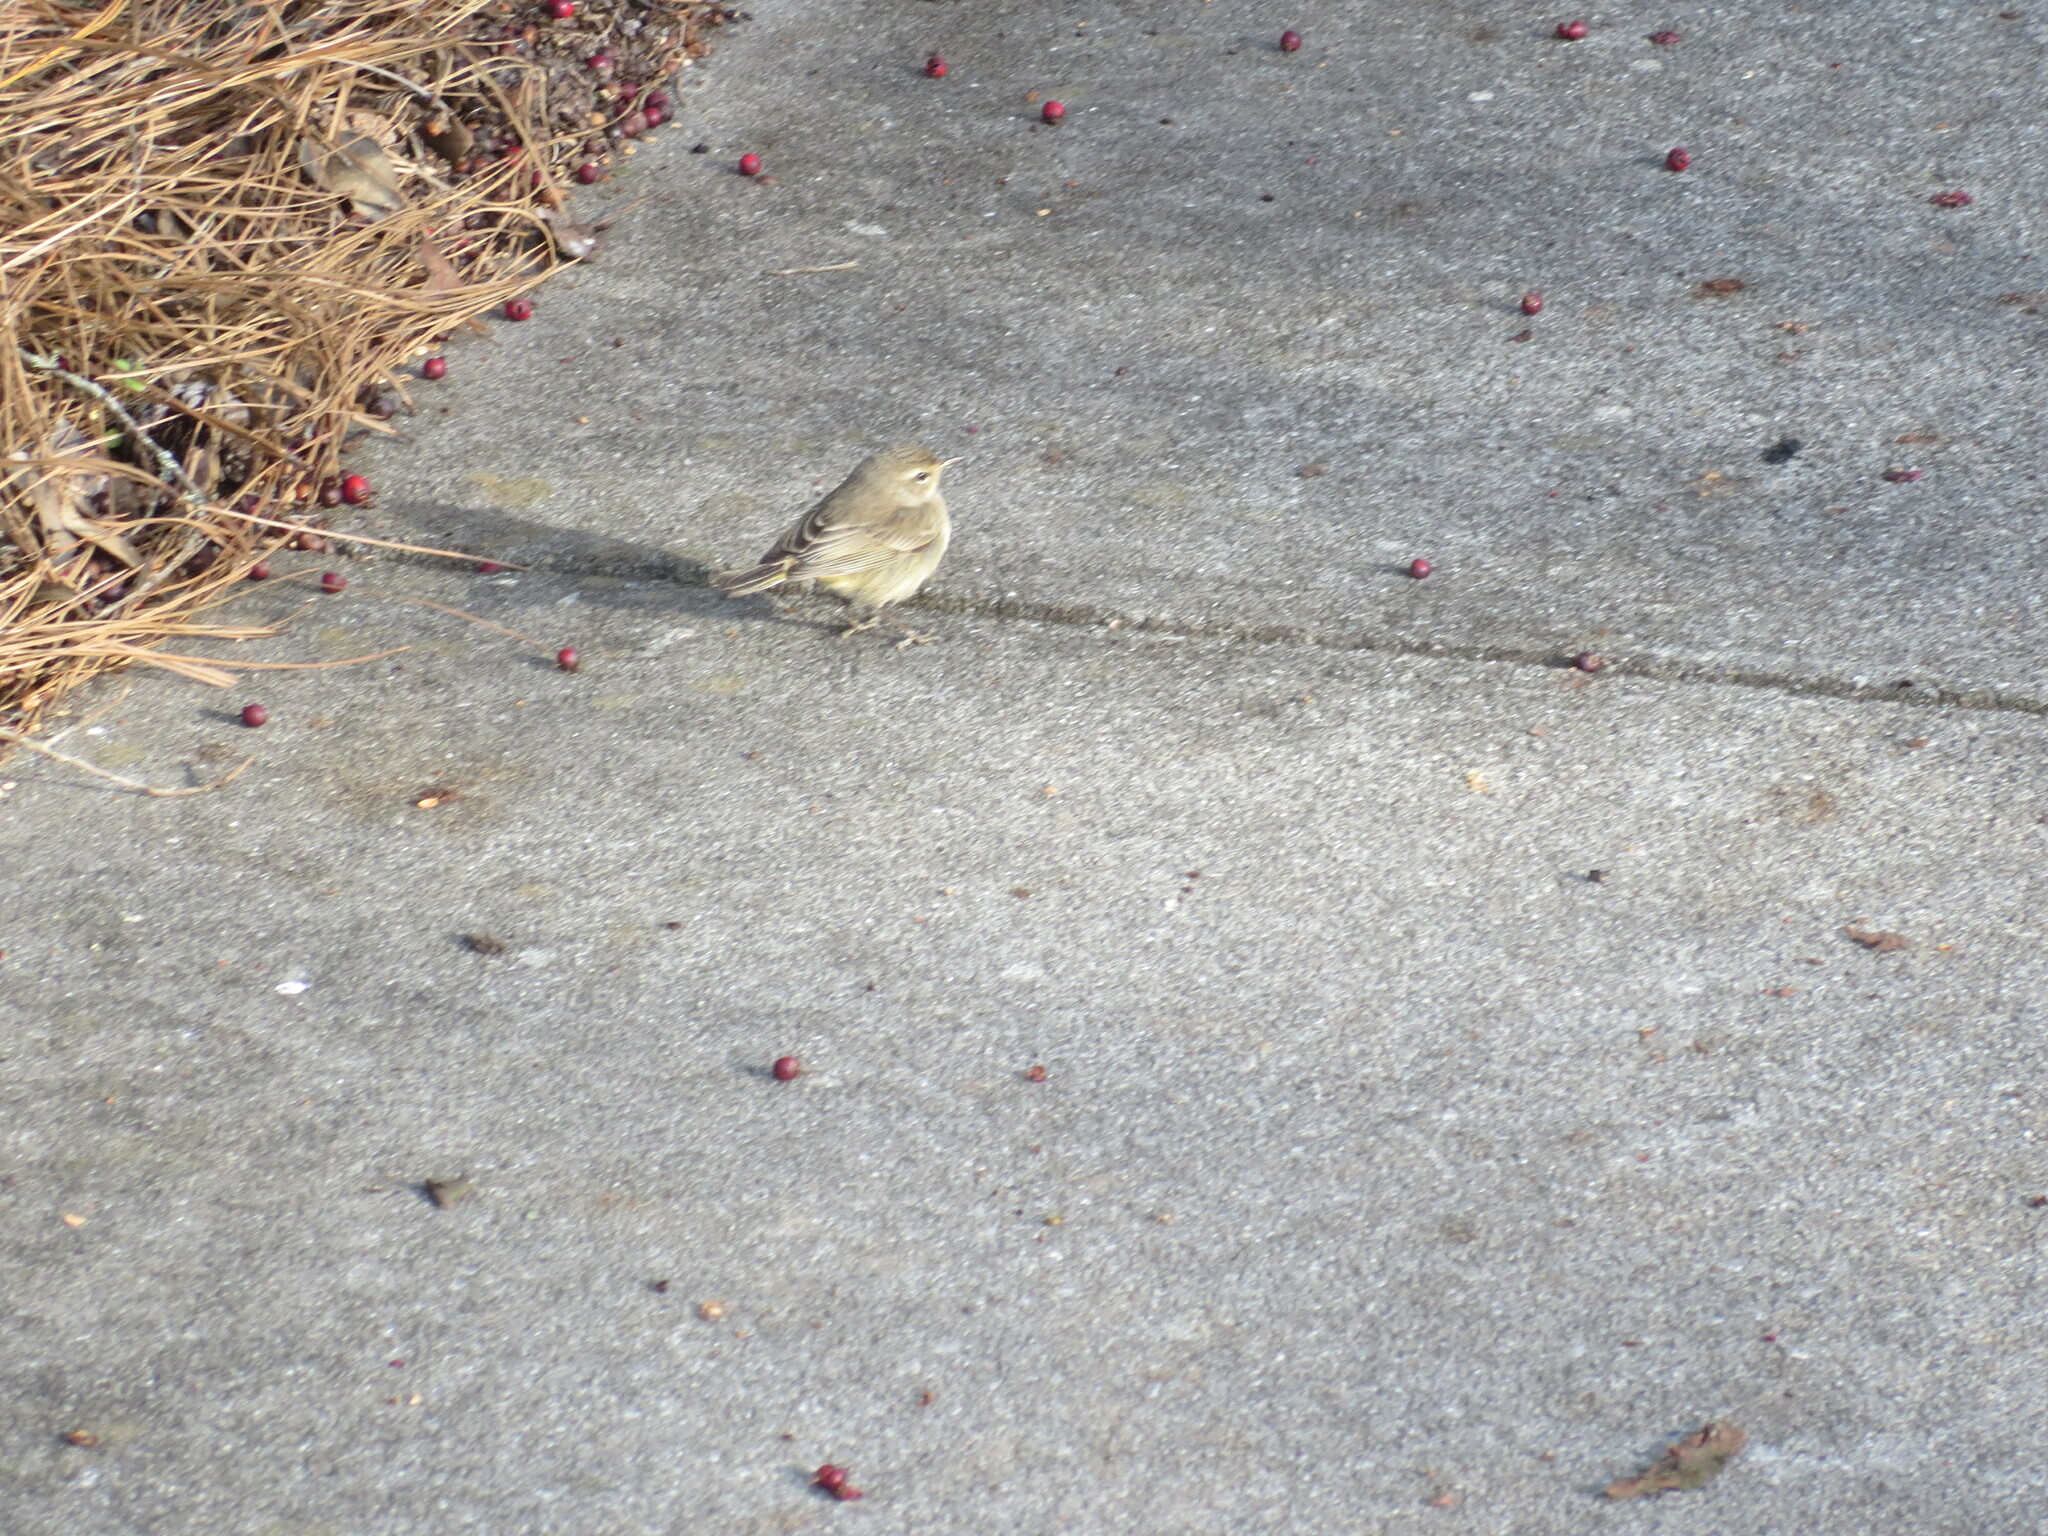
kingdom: Animalia
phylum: Chordata
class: Aves
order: Passeriformes
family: Parulidae
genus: Setophaga
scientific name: Setophaga palmarum
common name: Palm warbler
